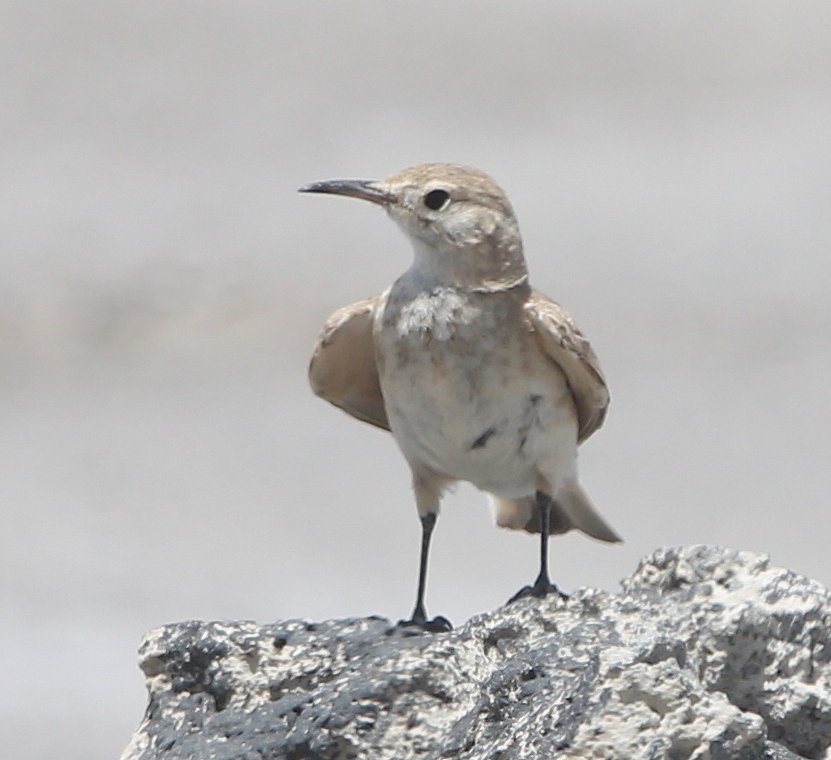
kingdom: Animalia
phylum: Chordata
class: Aves
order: Passeriformes
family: Furnariidae
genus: Geositta
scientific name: Geositta cunicularia
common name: Common miner
